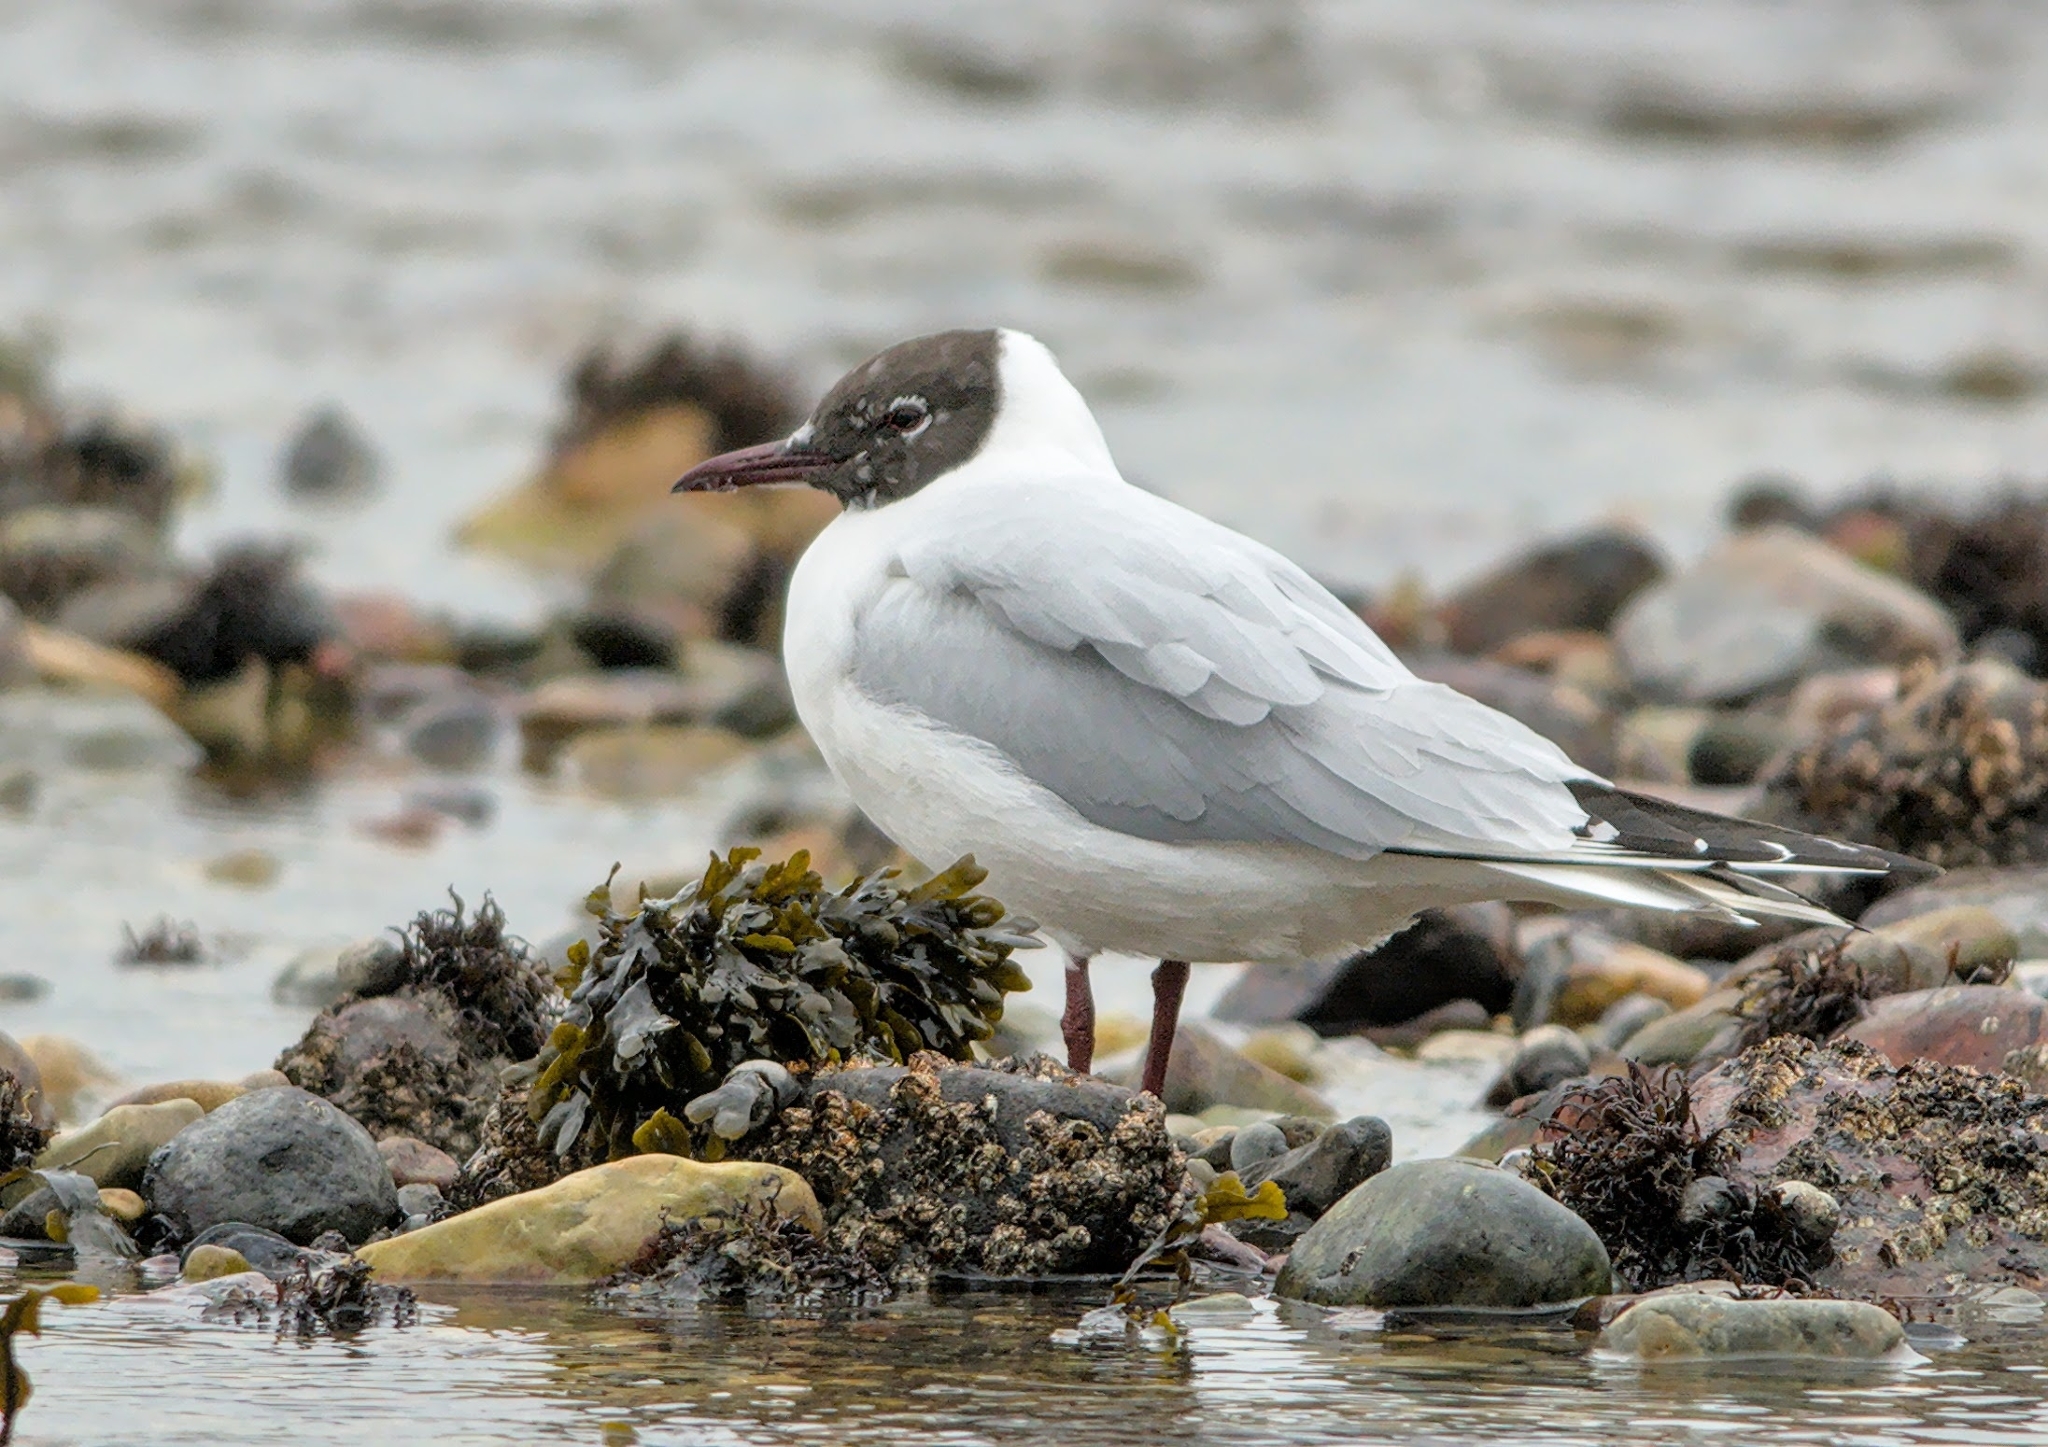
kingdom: Animalia
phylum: Chordata
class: Aves
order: Charadriiformes
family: Laridae
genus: Chroicocephalus
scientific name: Chroicocephalus ridibundus
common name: Black-headed gull
